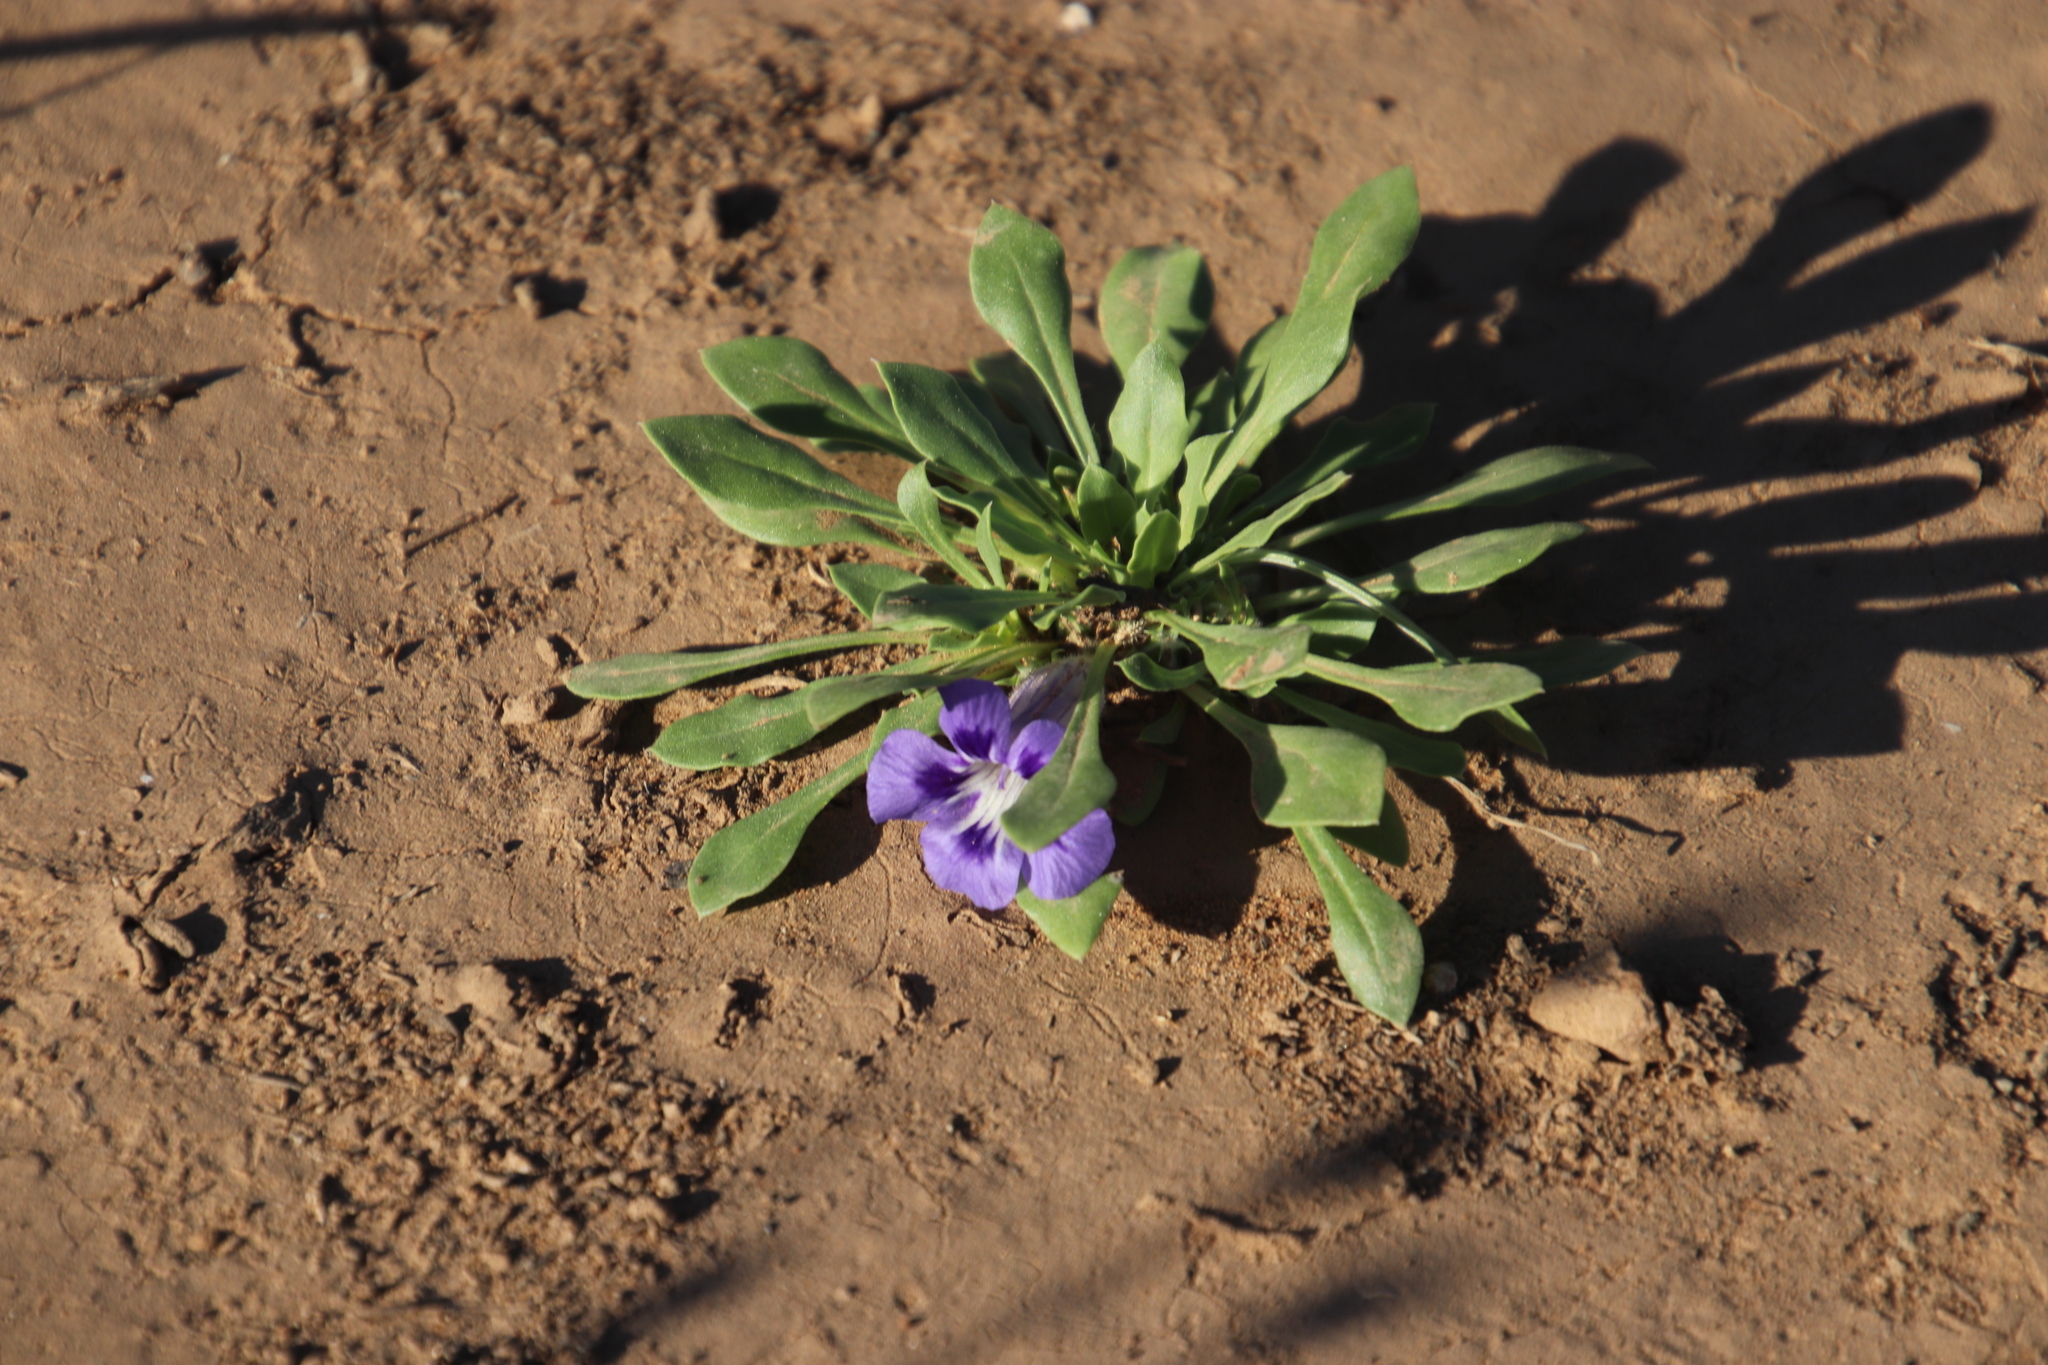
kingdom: Plantae
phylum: Tracheophyta
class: Magnoliopsida
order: Lamiales
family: Scrophulariaceae
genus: Aptosimum
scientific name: Aptosimum indivisum
